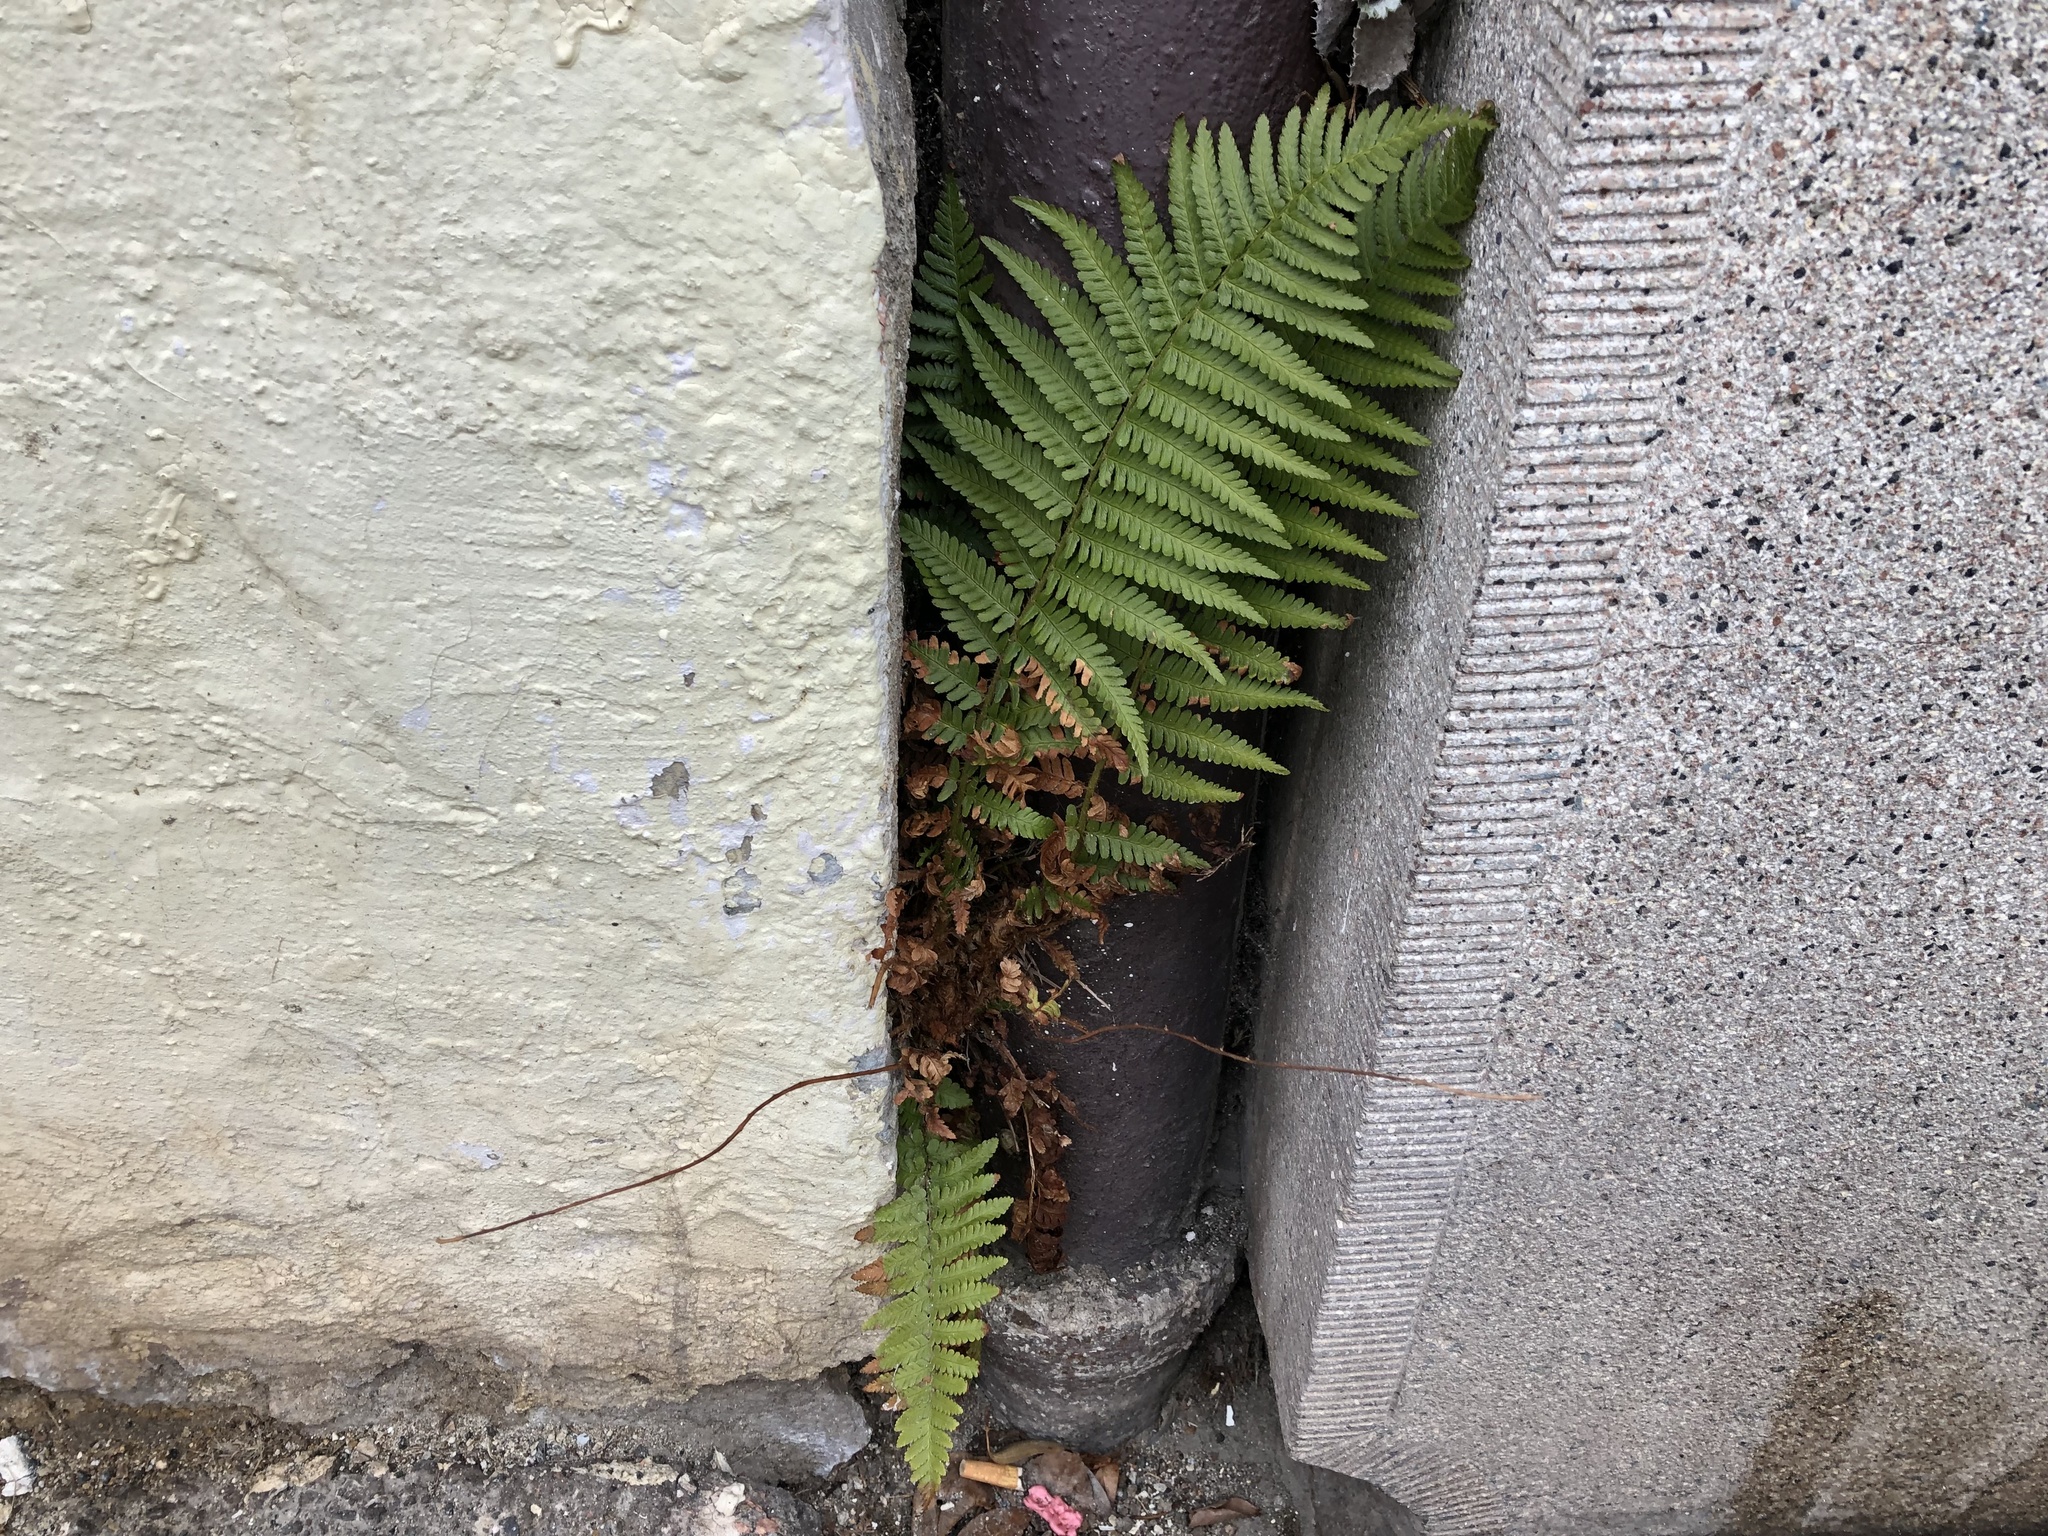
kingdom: Plantae
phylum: Tracheophyta
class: Polypodiopsida
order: Polypodiales
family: Dryopteridaceae
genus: Dryopteris
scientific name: Dryopteris filix-mas
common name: Male fern
